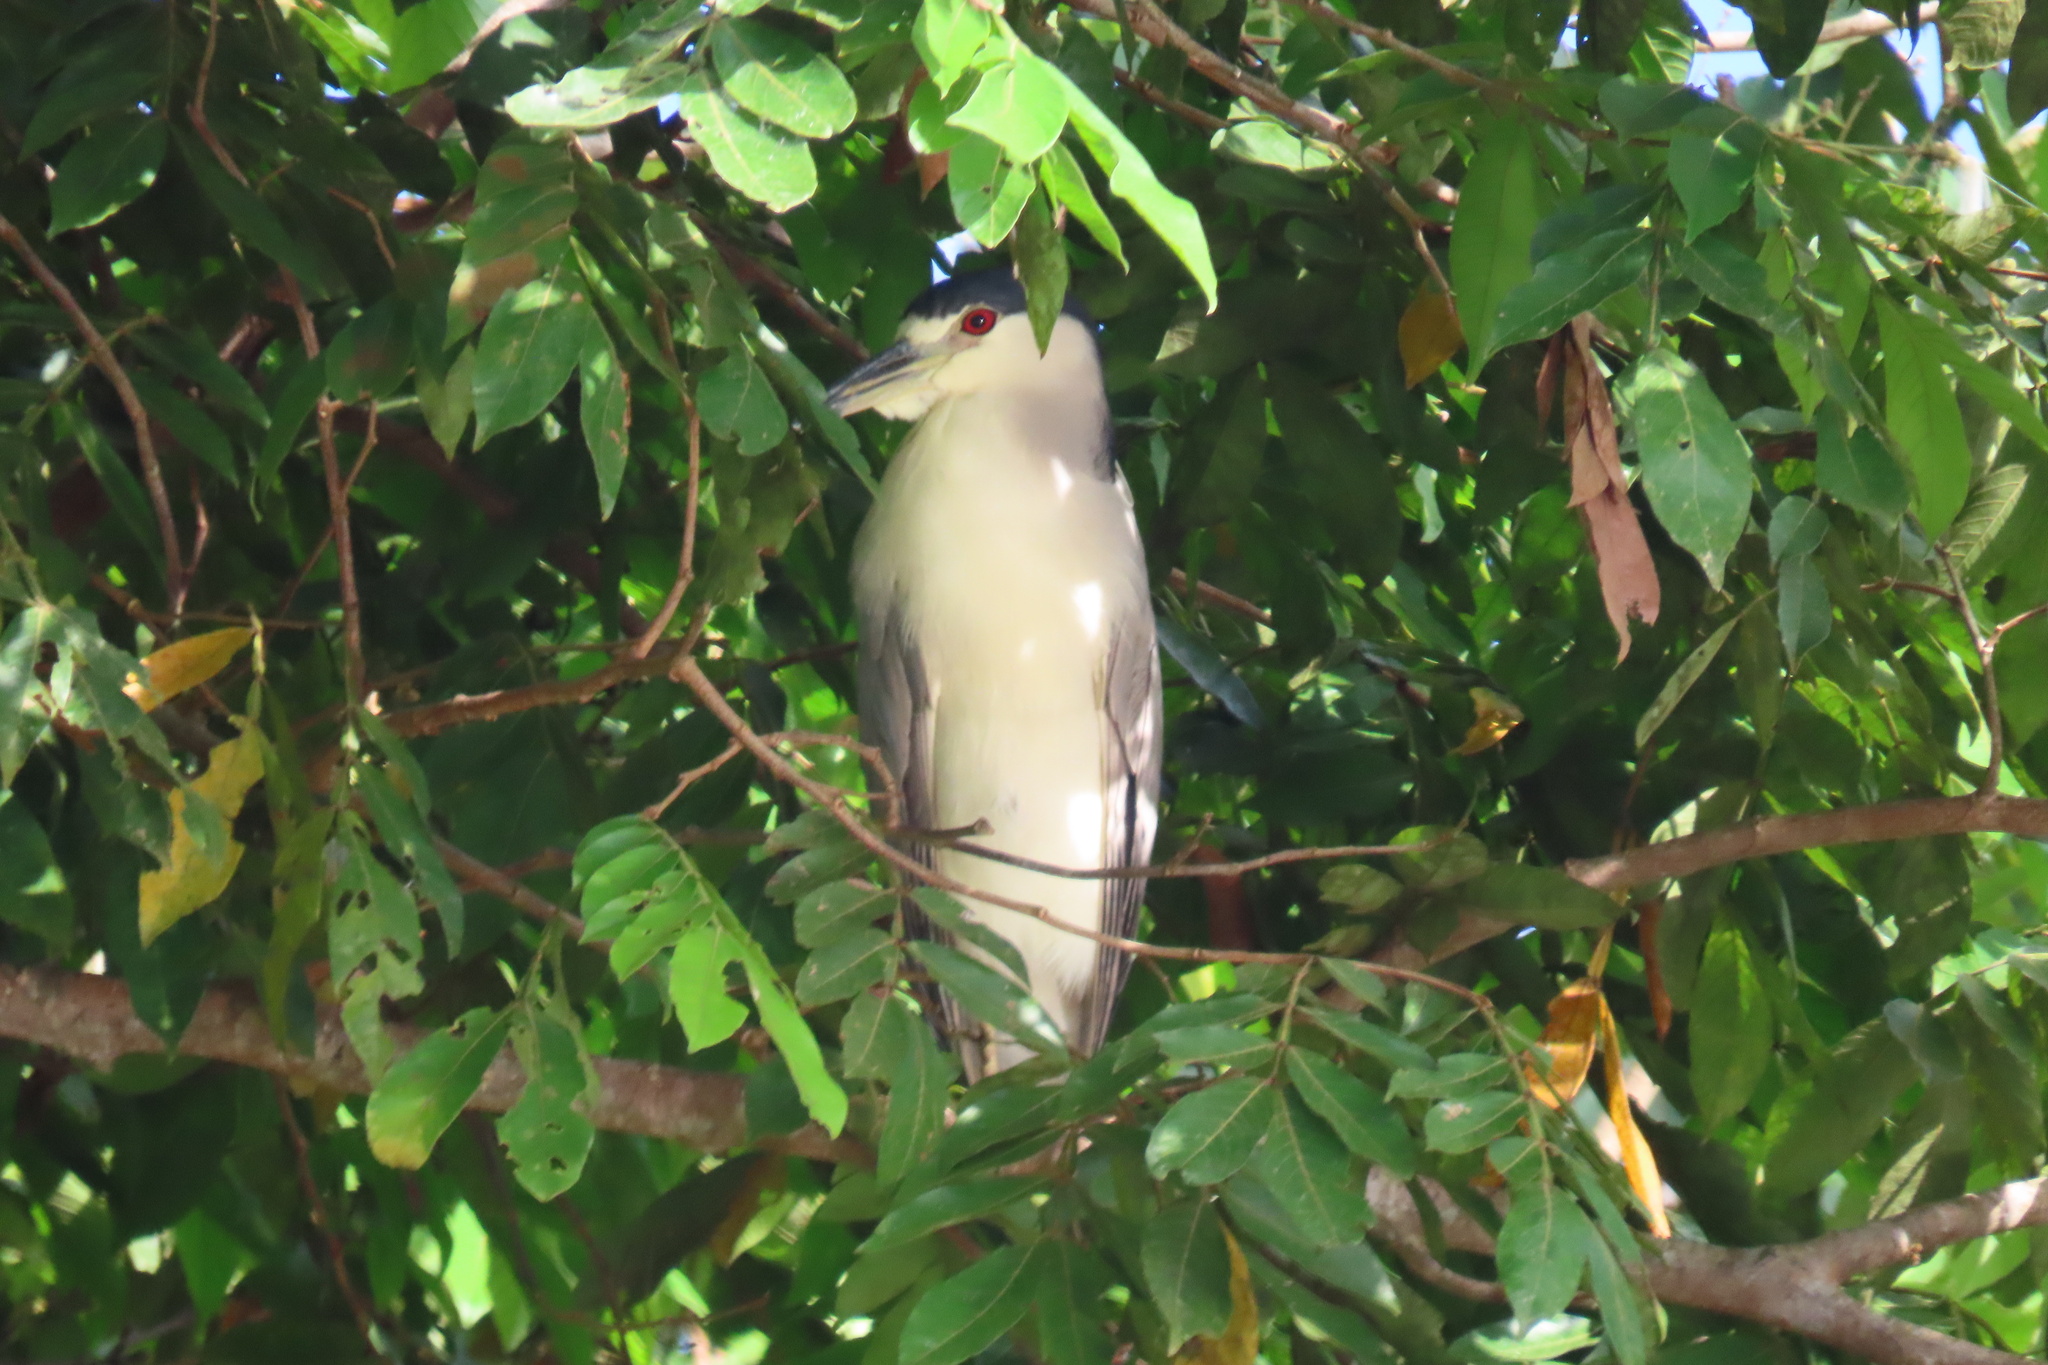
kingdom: Animalia
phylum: Chordata
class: Aves
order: Pelecaniformes
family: Ardeidae
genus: Nycticorax
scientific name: Nycticorax nycticorax
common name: Black-crowned night heron
